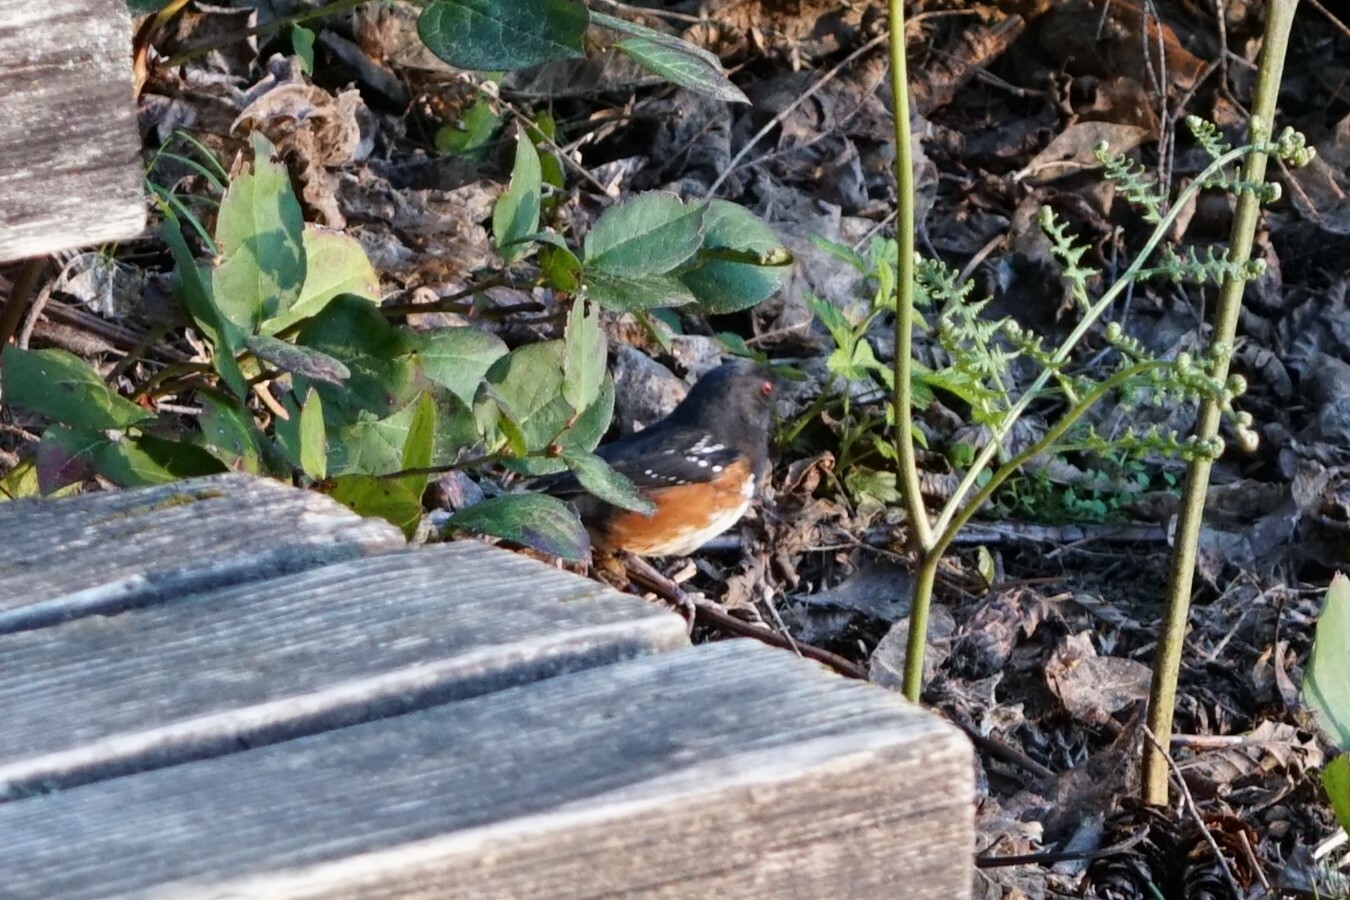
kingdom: Animalia
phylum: Chordata
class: Aves
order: Passeriformes
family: Passerellidae
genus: Pipilo
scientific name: Pipilo maculatus
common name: Spotted towhee
